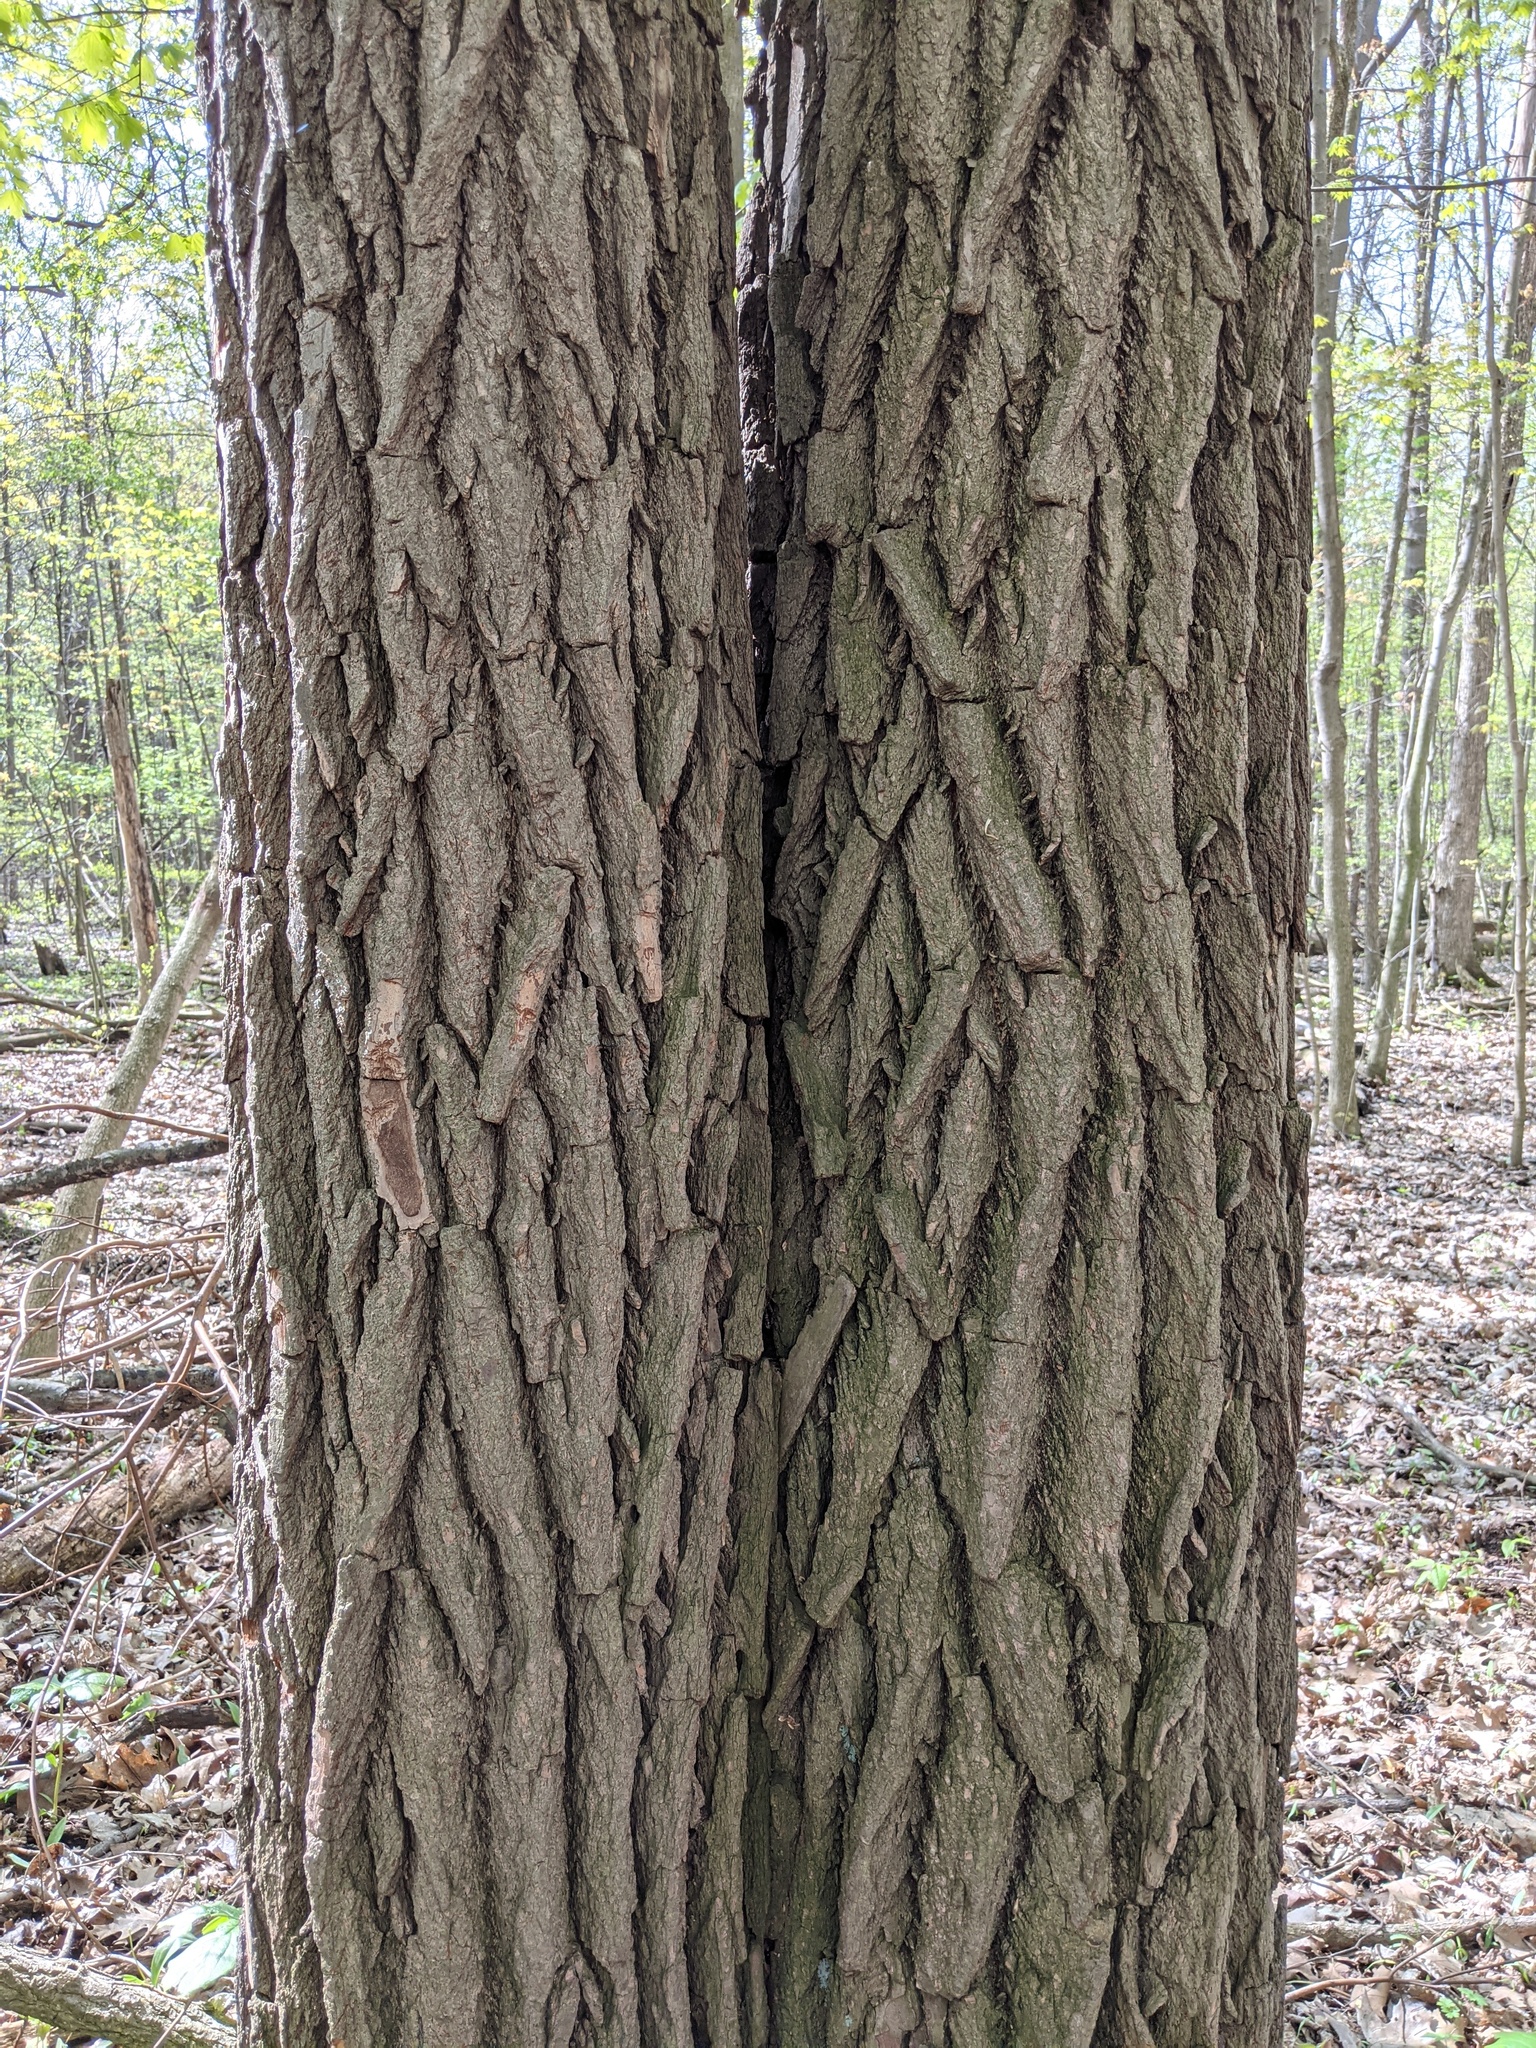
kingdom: Plantae
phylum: Tracheophyta
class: Magnoliopsida
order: Laurales
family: Lauraceae
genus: Sassafras
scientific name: Sassafras albidum
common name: Sassafras
